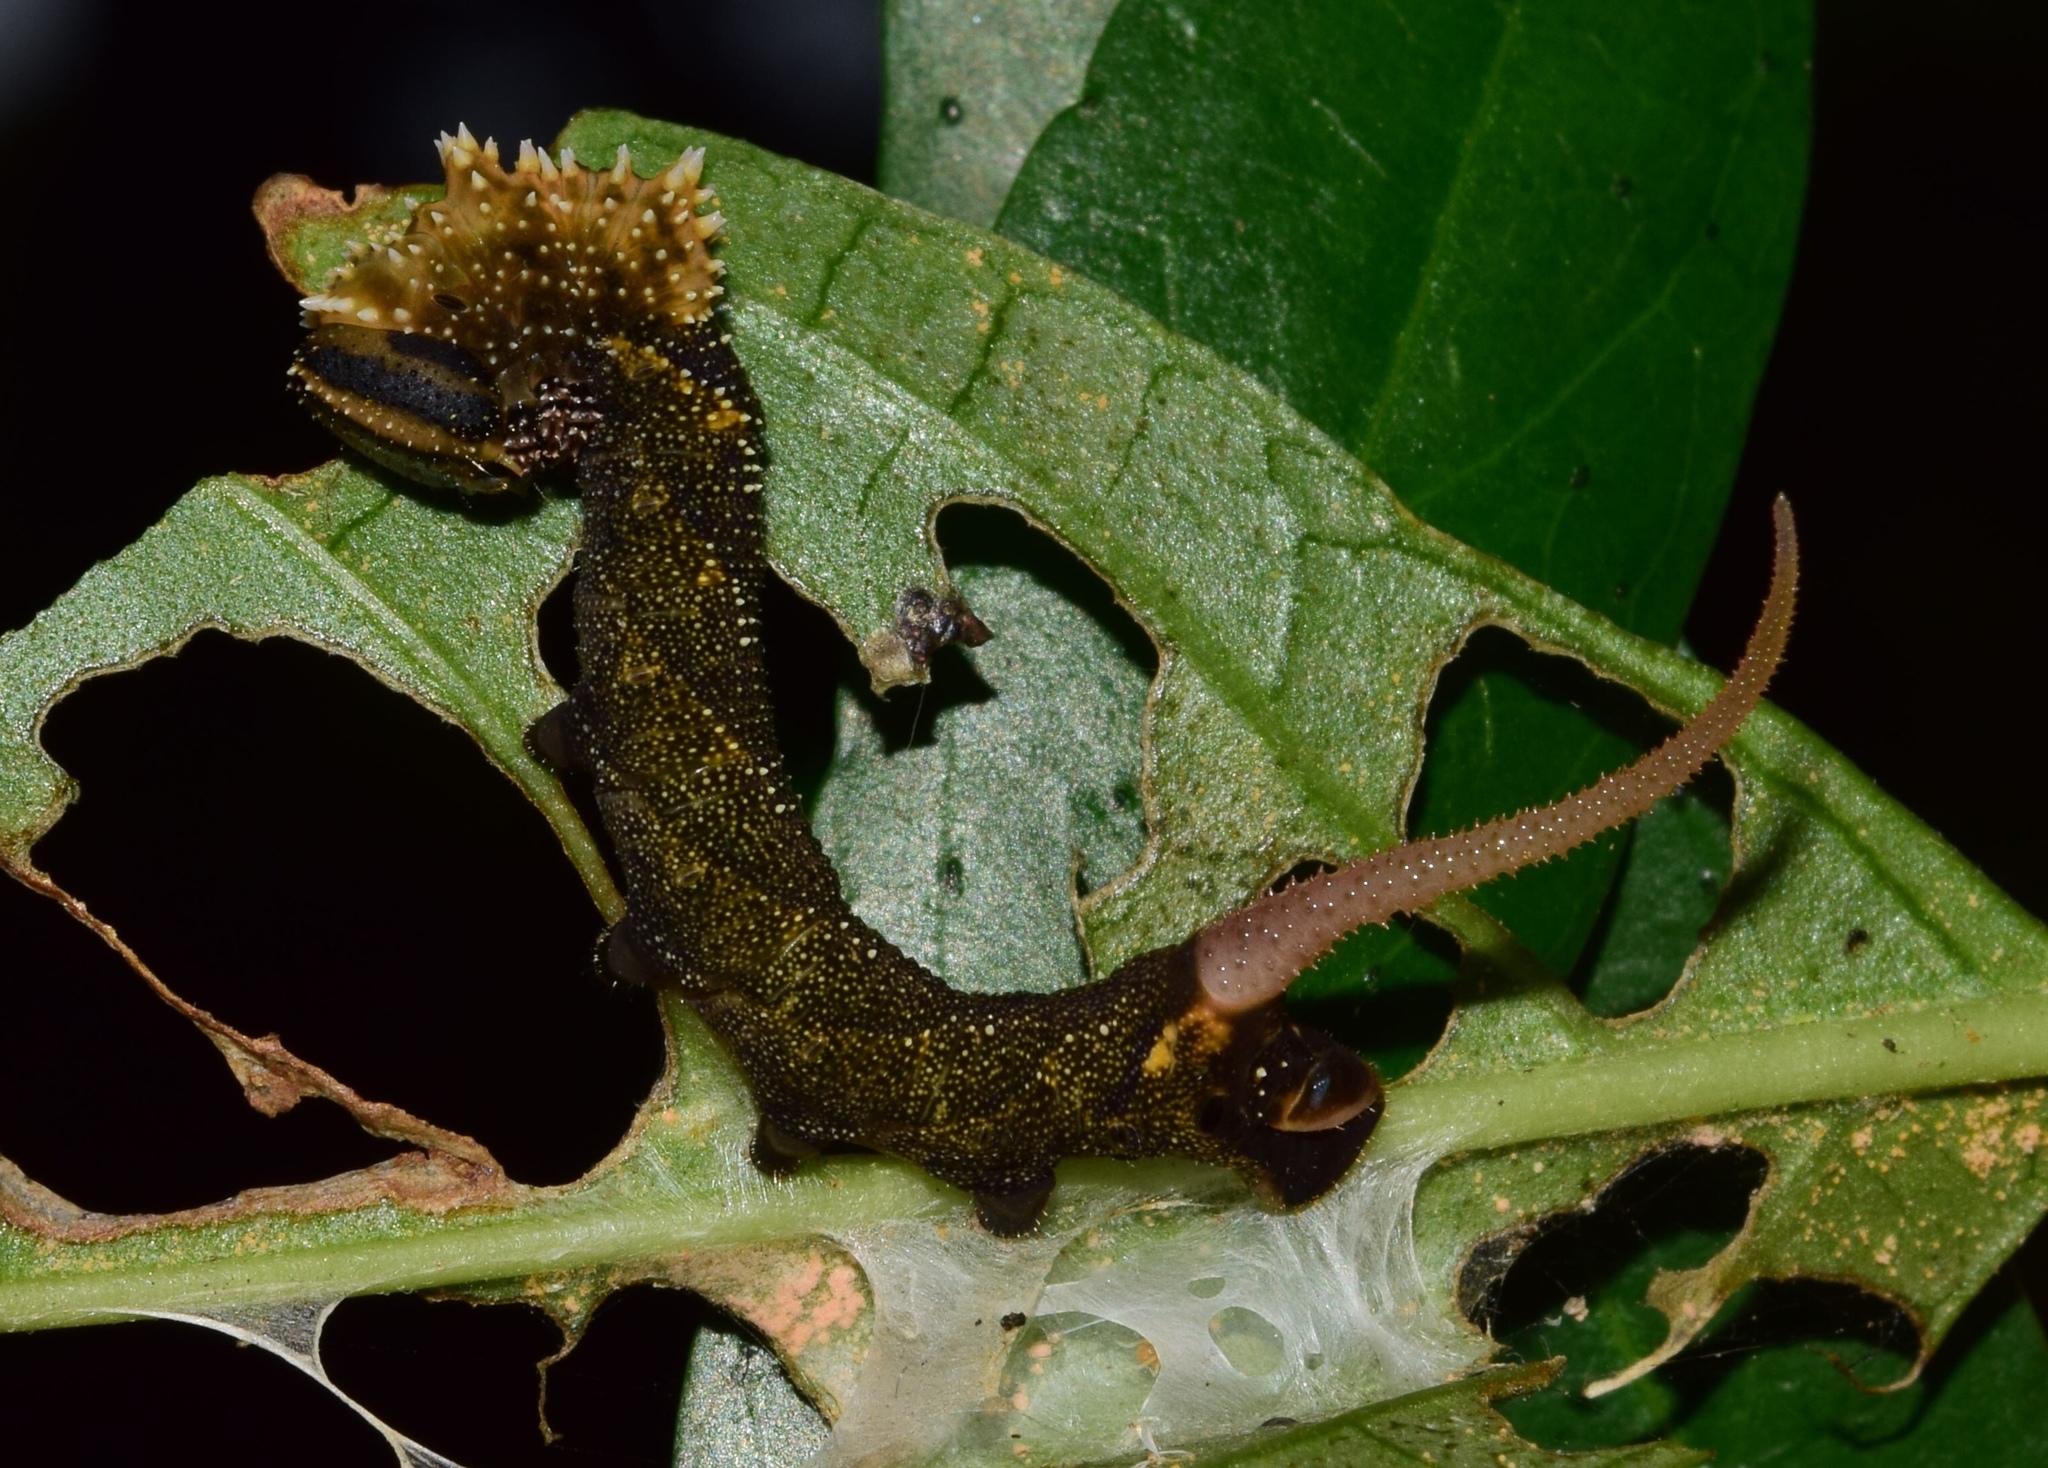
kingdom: Animalia
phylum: Arthropoda
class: Insecta
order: Lepidoptera
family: Sphingidae
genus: Coelonia
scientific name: Coelonia fulvinotata
